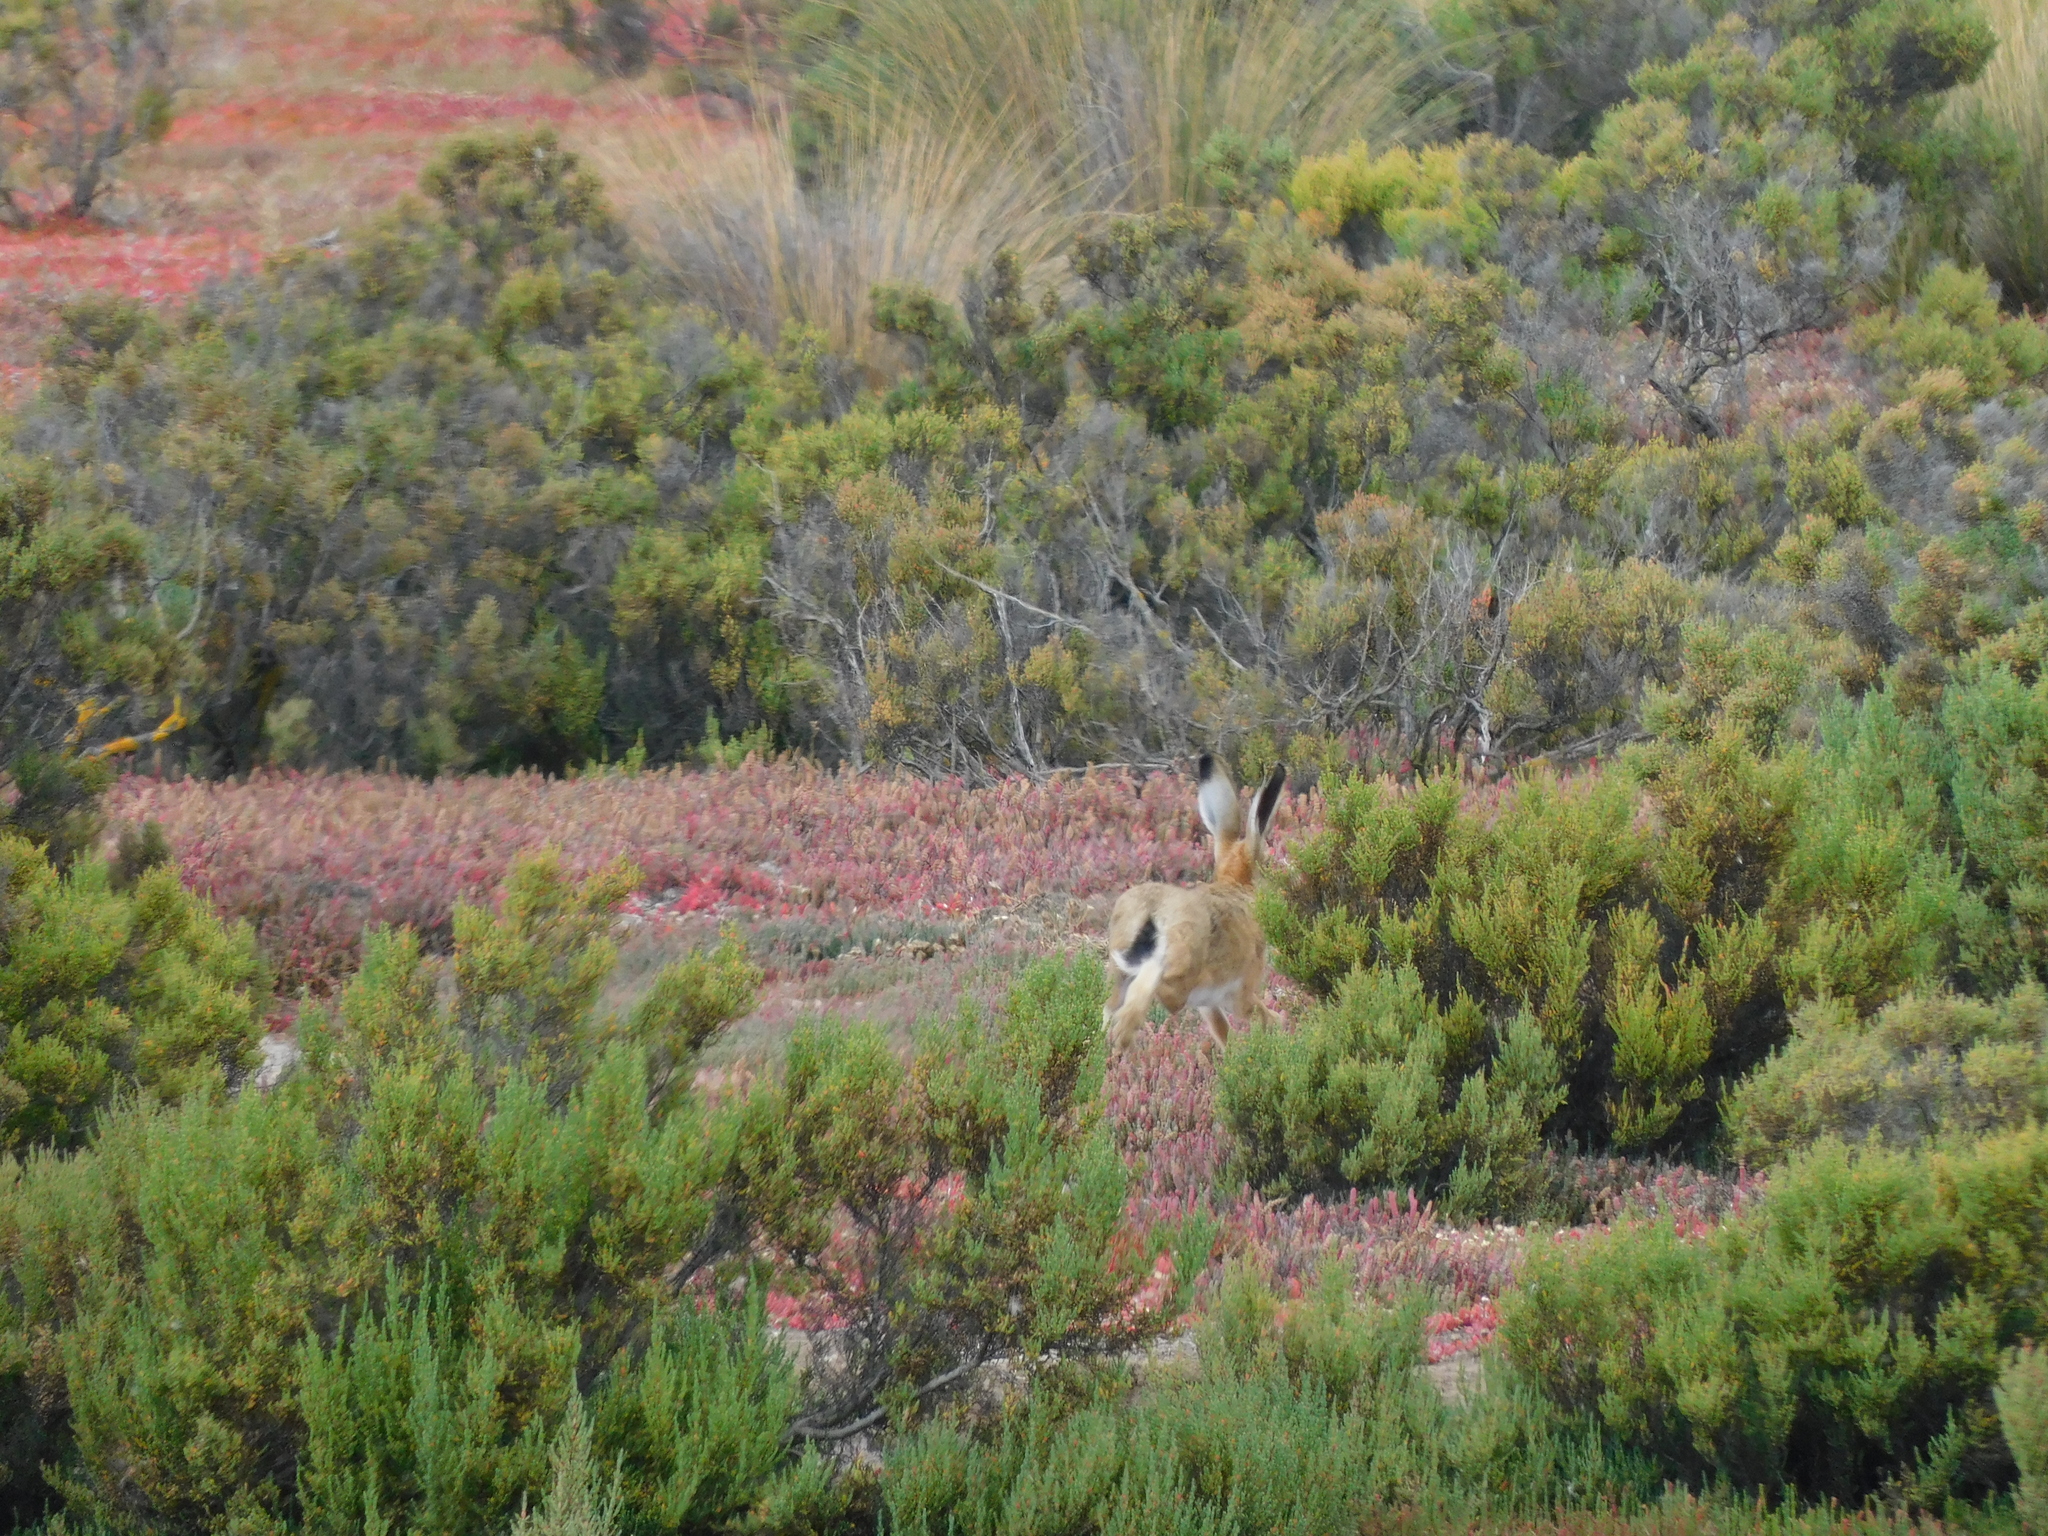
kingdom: Animalia
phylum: Chordata
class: Mammalia
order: Lagomorpha
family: Leporidae
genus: Lepus
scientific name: Lepus europaeus
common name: European hare
